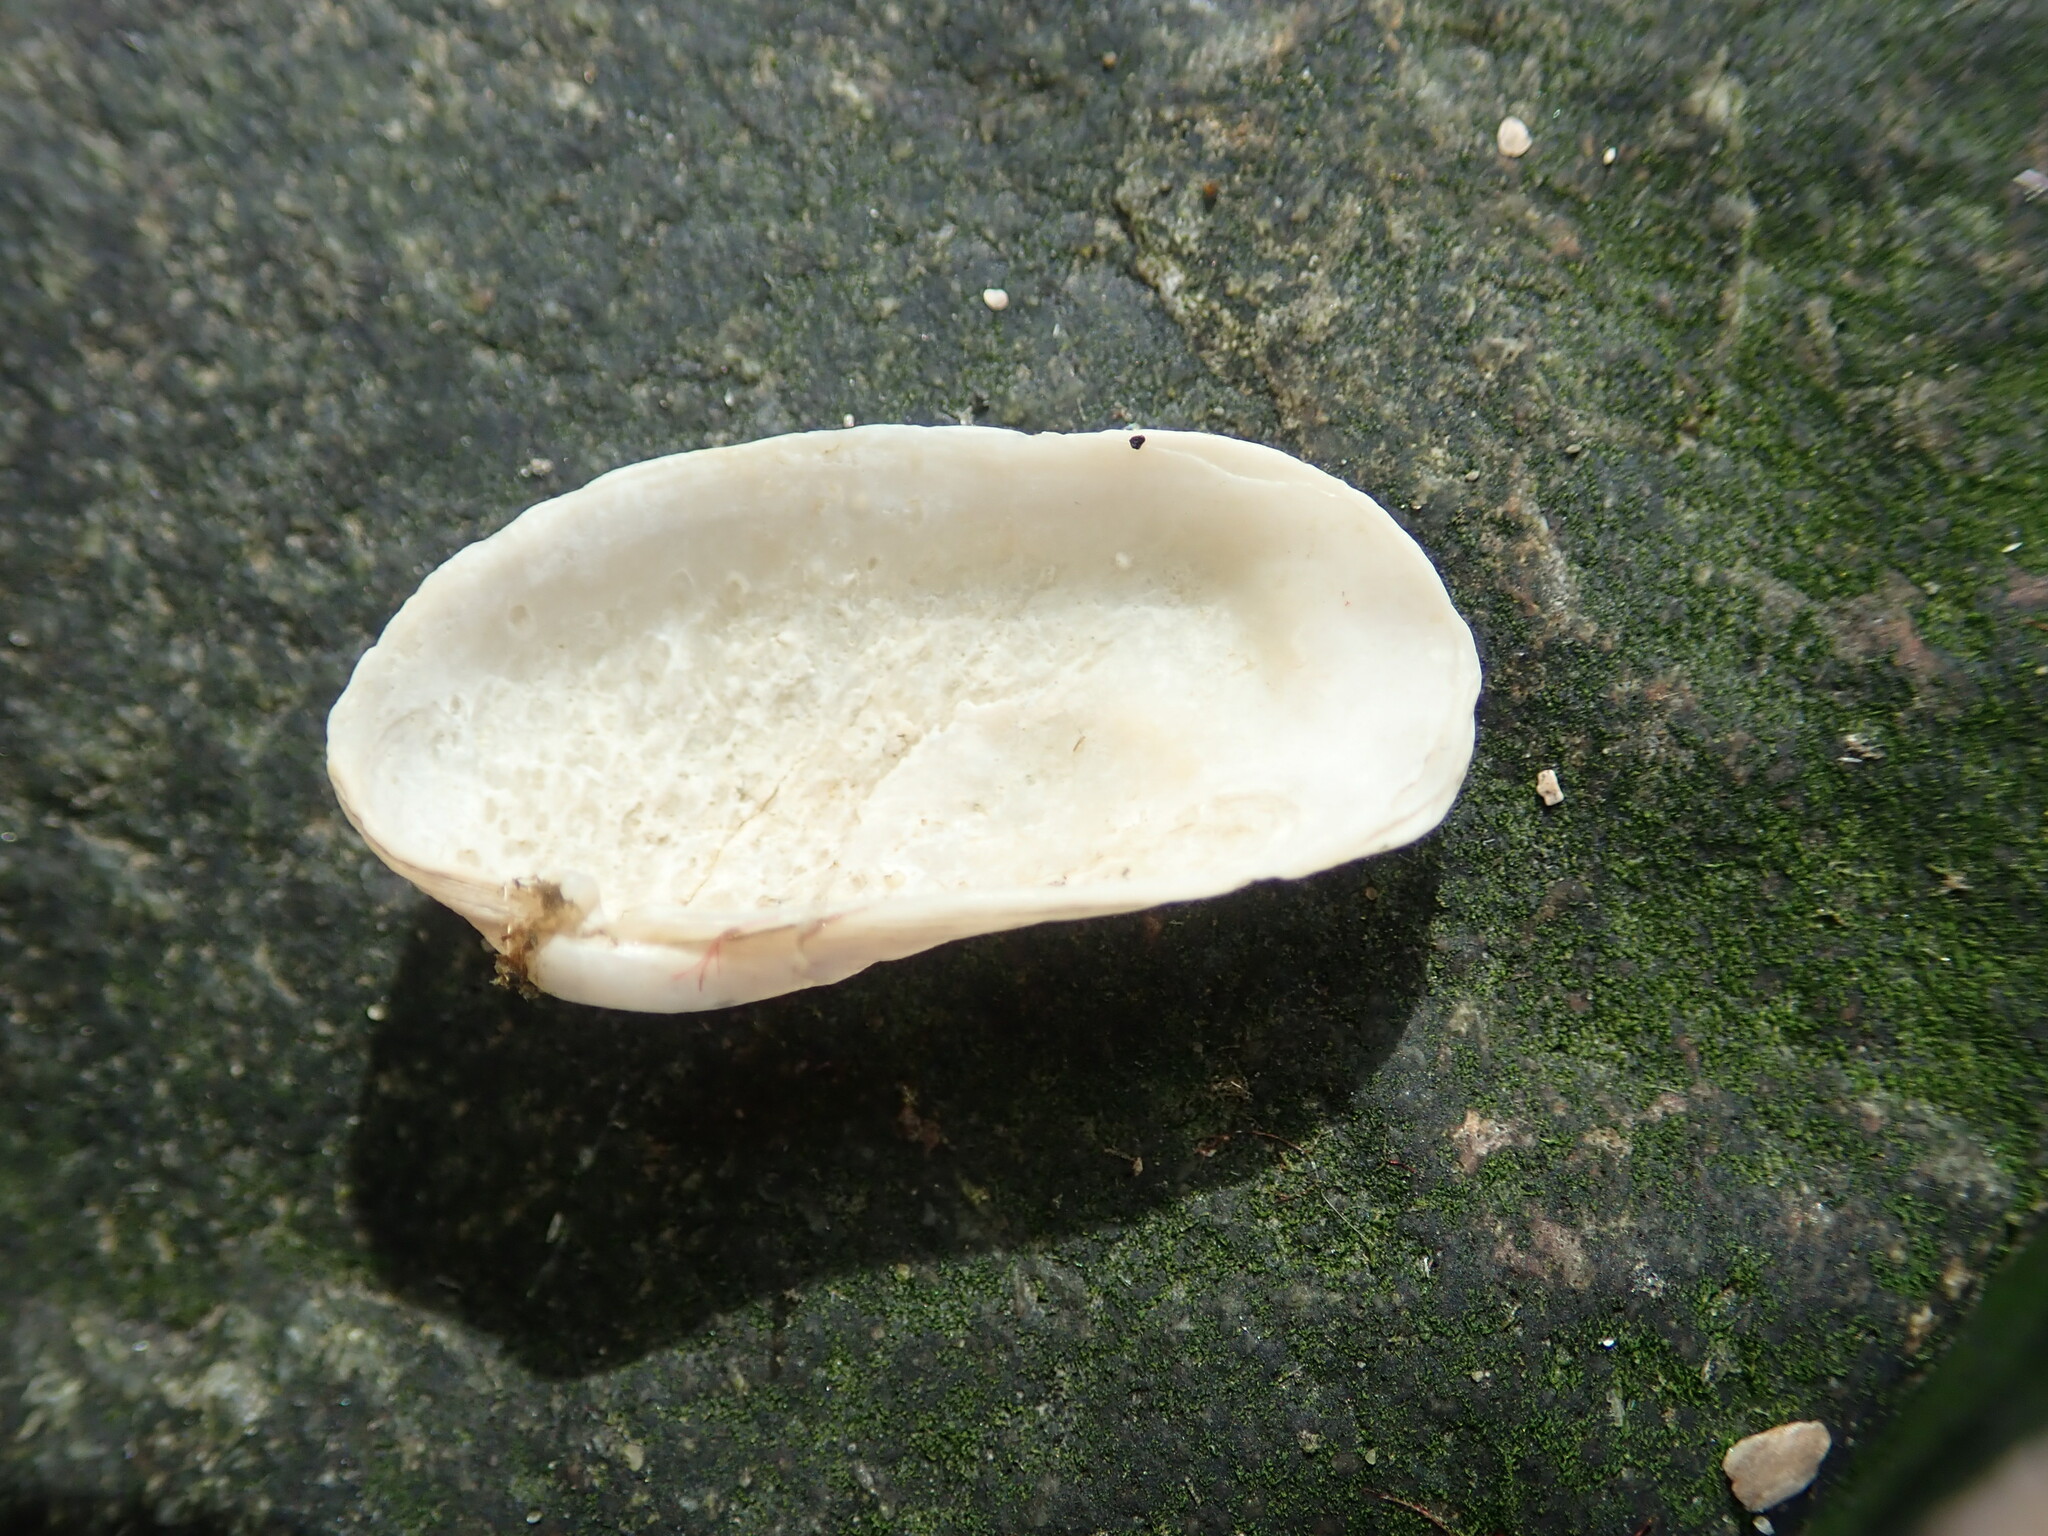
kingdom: Animalia
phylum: Mollusca
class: Bivalvia
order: Venerida
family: Veneridae
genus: Petricolaria
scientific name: Petricolaria pholadiformis
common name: American piddock
